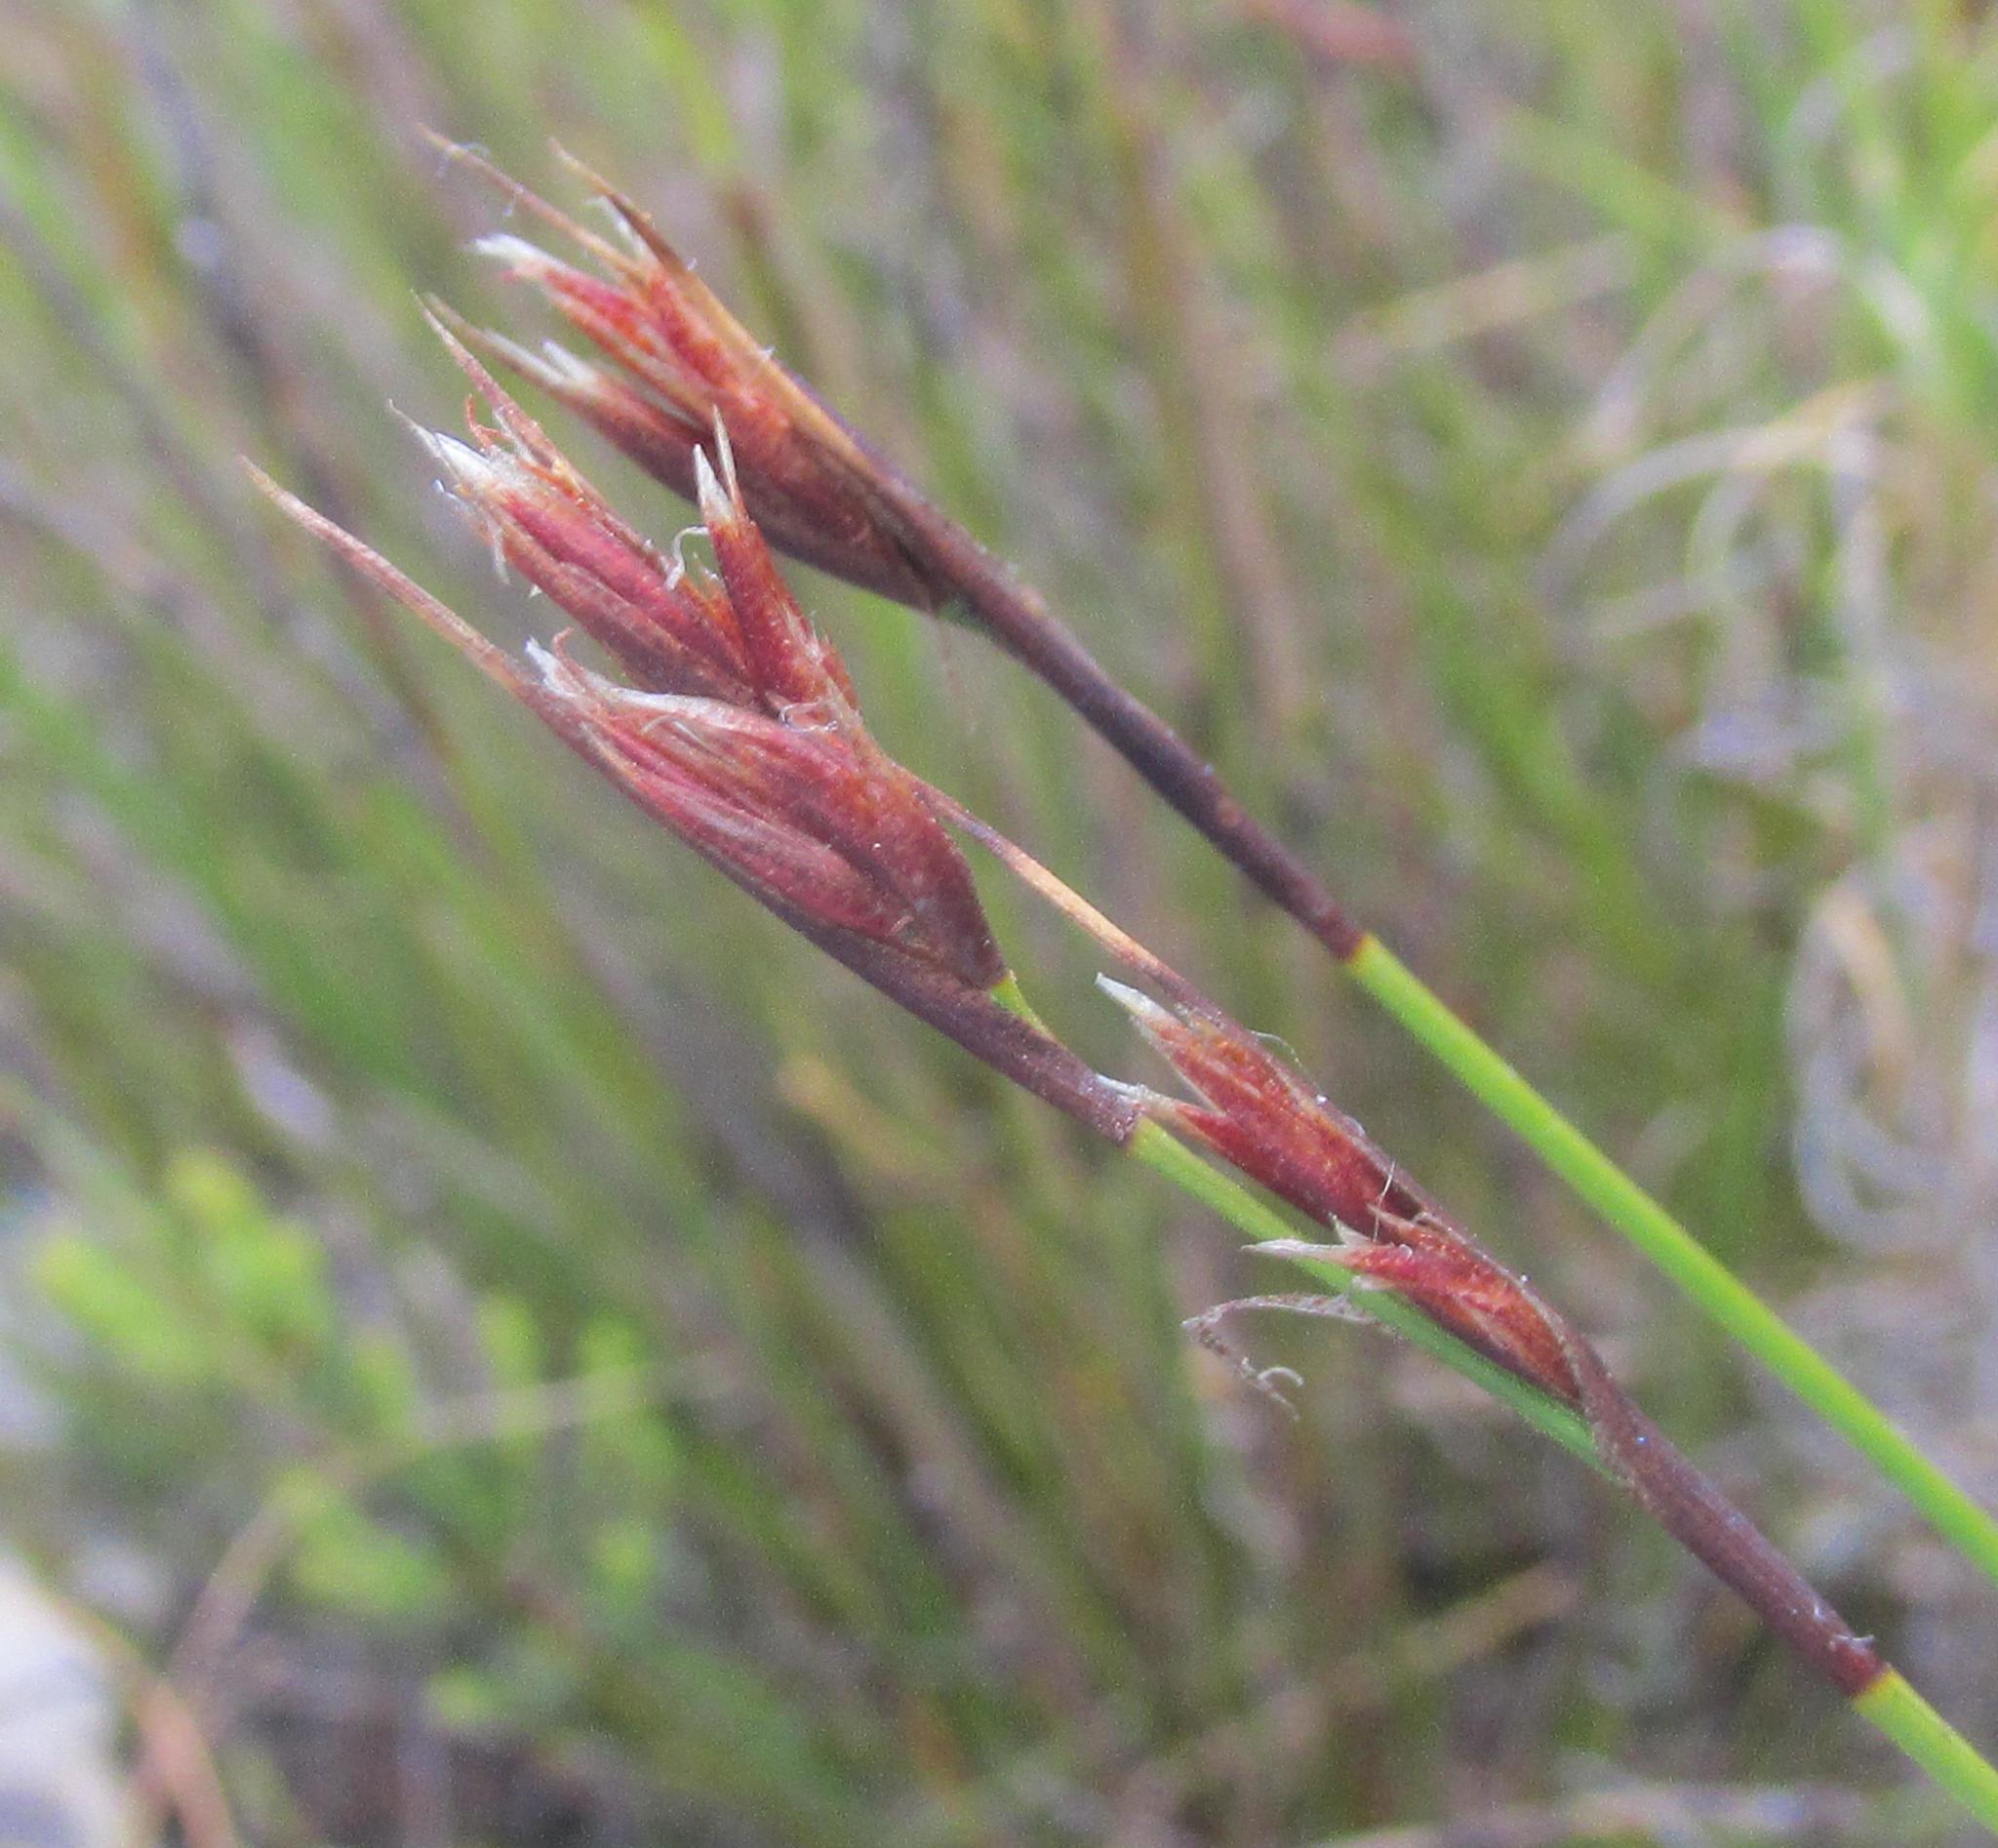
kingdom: Plantae
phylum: Tracheophyta
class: Liliopsida
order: Poales
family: Cyperaceae
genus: Tetraria
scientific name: Tetraria maculata
